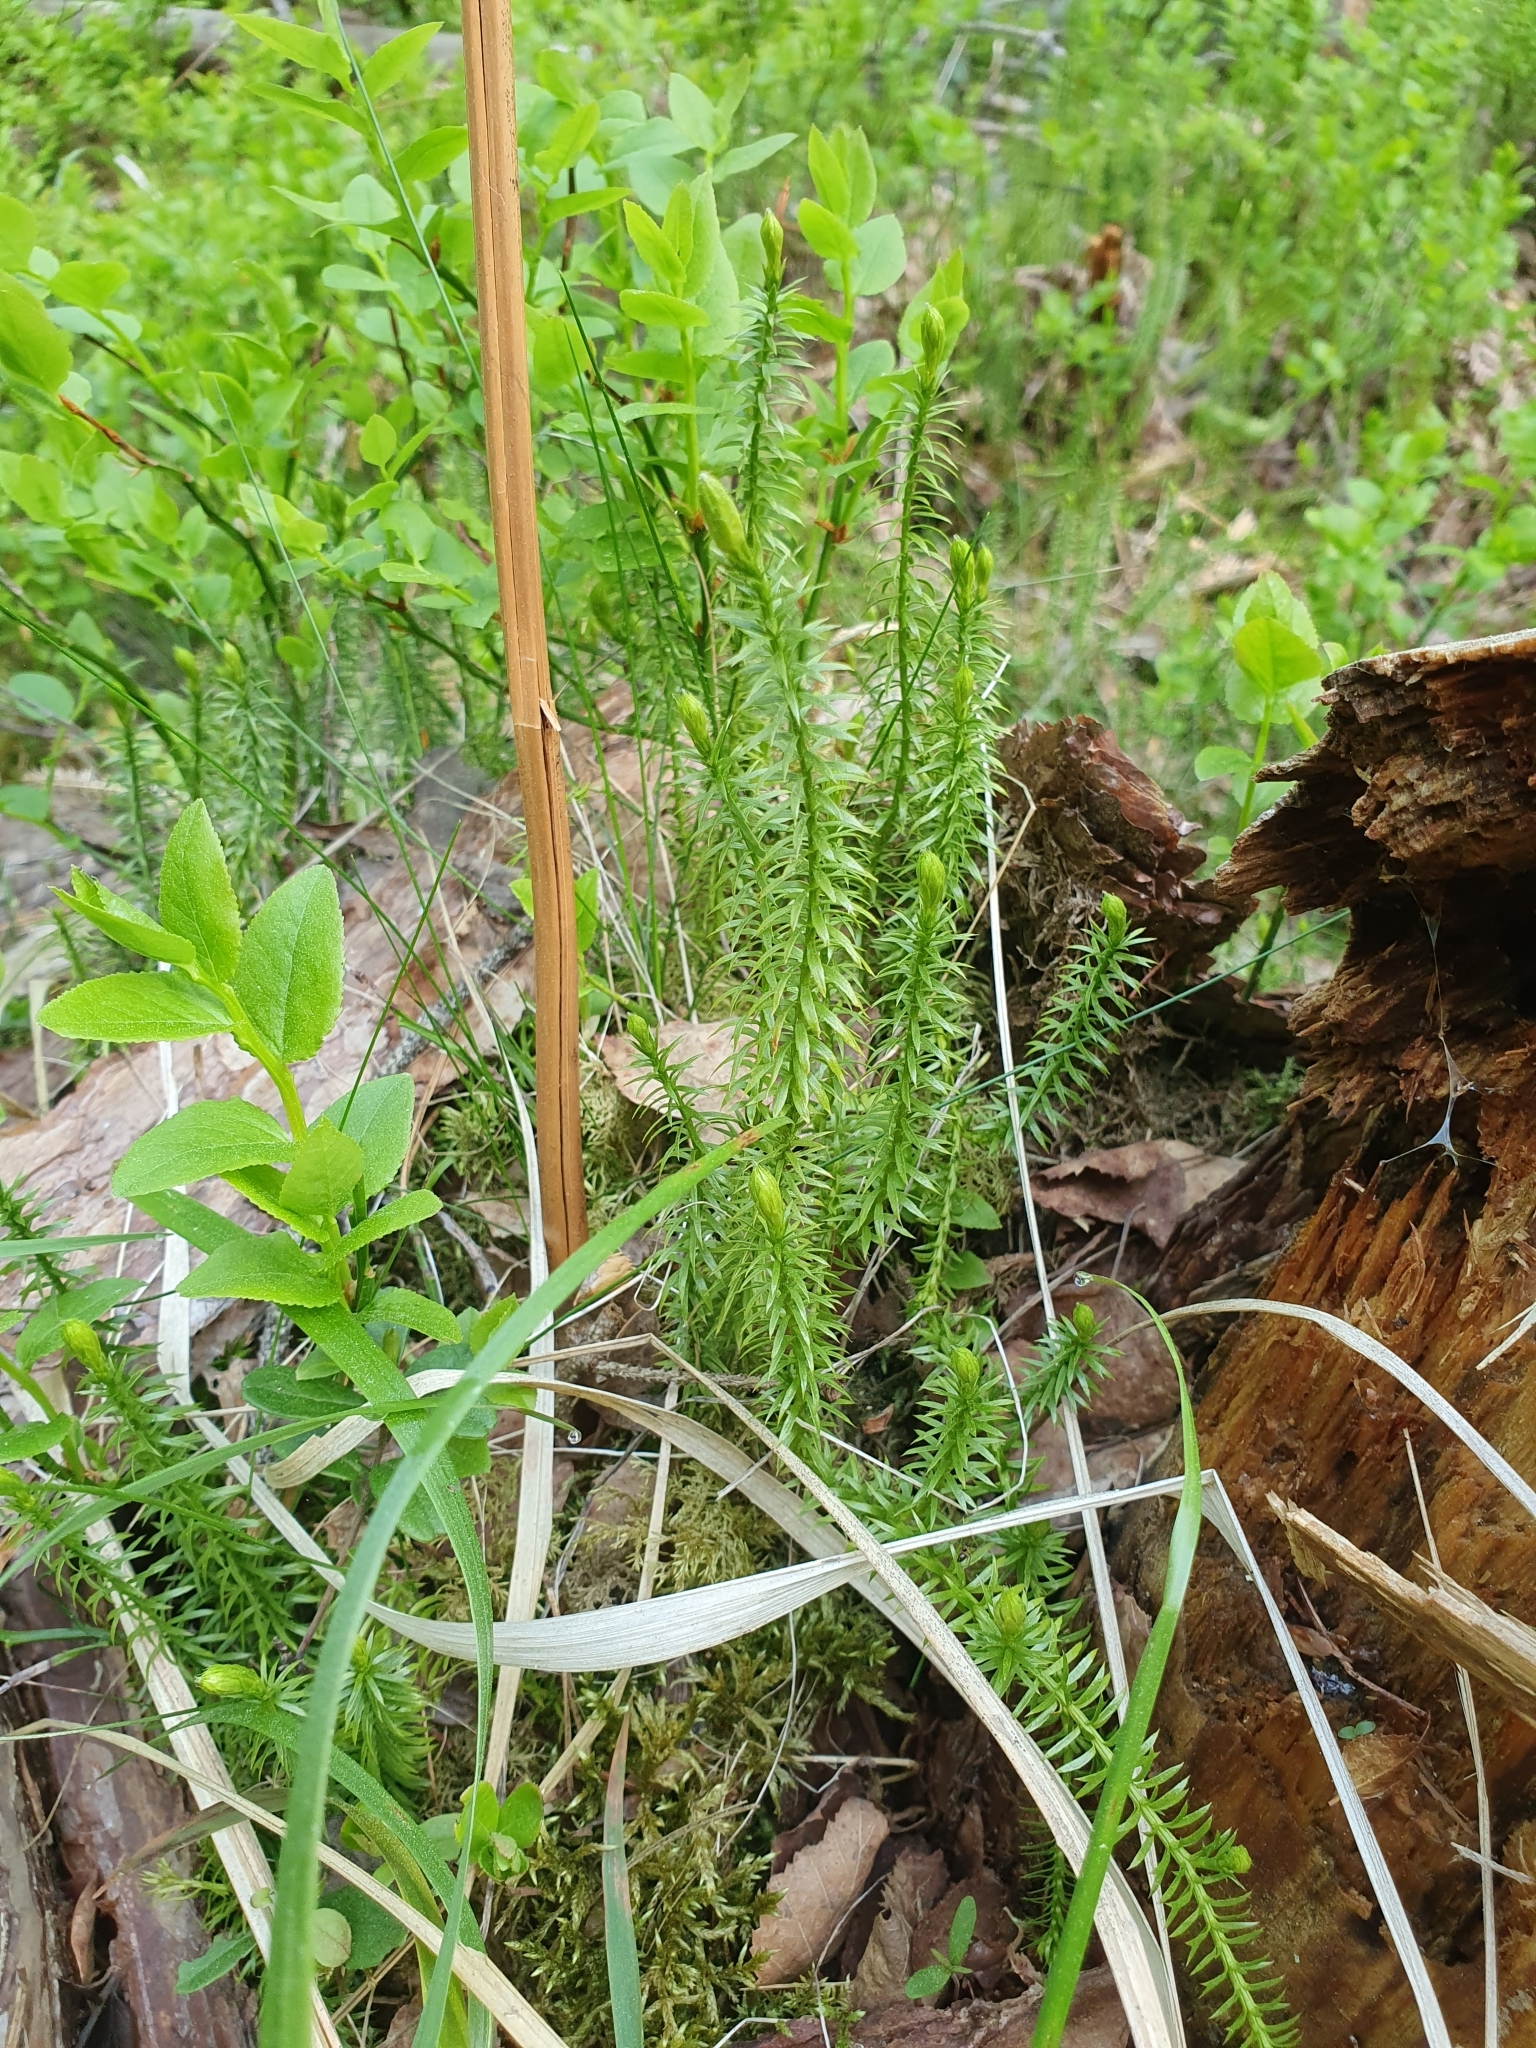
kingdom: Plantae
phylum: Tracheophyta
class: Lycopodiopsida
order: Lycopodiales
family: Lycopodiaceae
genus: Spinulum
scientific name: Spinulum annotinum
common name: Interrupted club-moss
